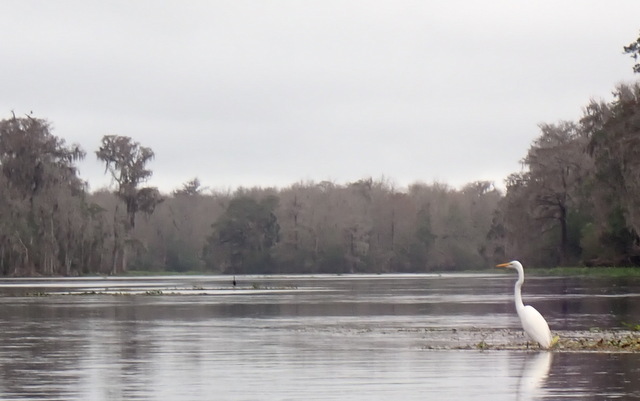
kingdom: Animalia
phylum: Chordata
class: Aves
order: Pelecaniformes
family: Ardeidae
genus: Ardea
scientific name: Ardea alba
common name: Great egret
